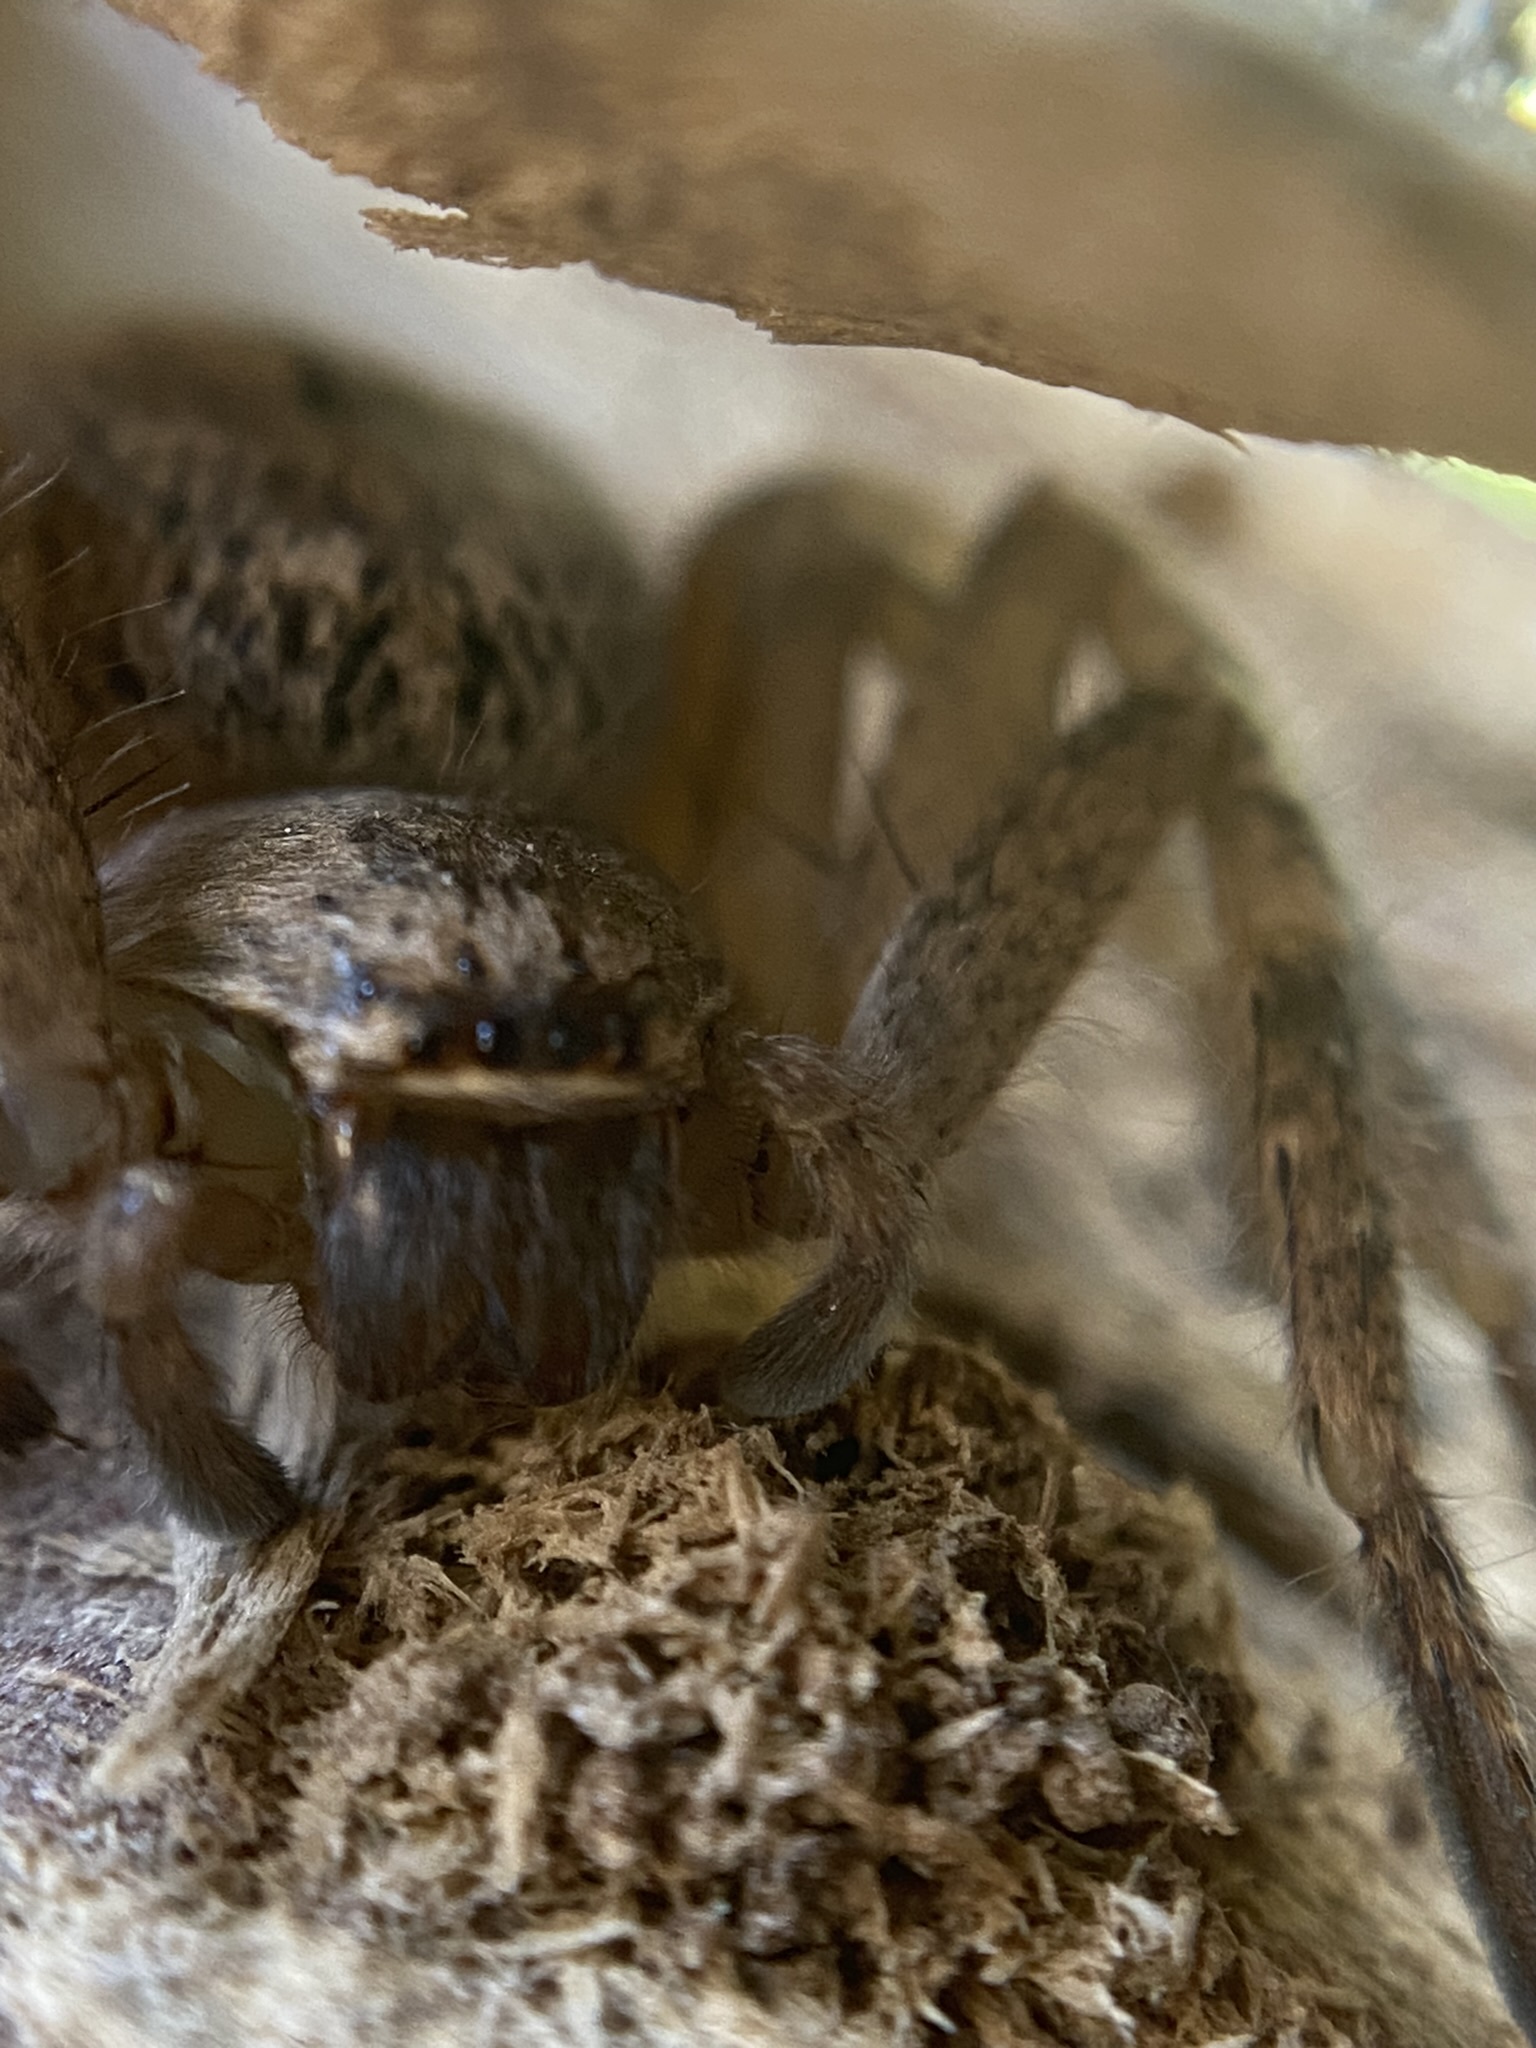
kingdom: Animalia
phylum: Arthropoda
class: Arachnida
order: Araneae
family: Sparassidae
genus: Polybetes
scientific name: Polybetes rapidus
